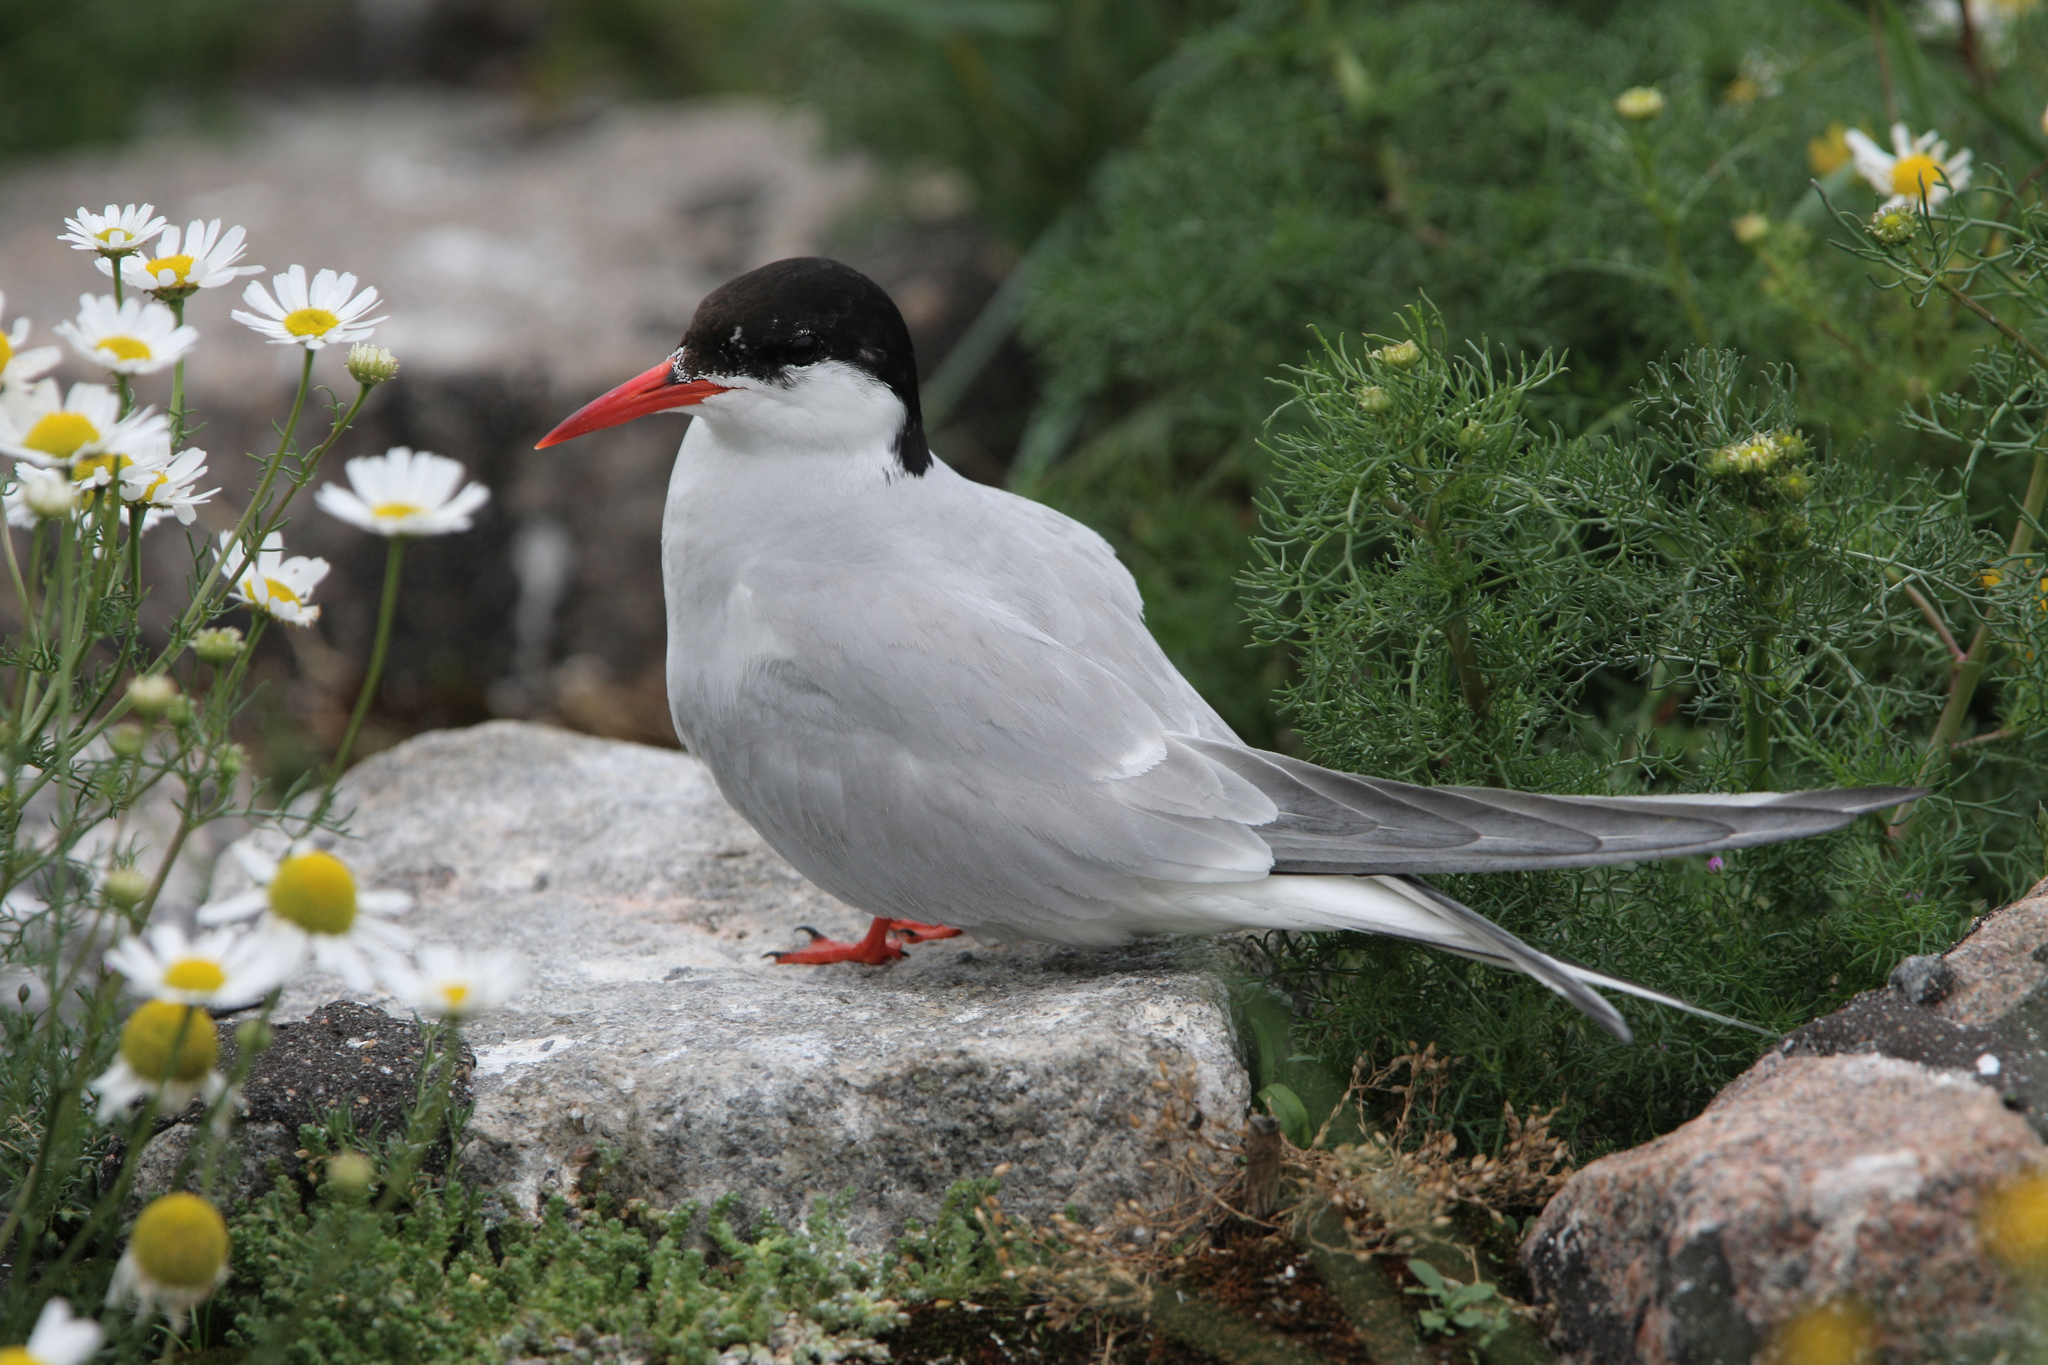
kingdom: Animalia
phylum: Chordata
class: Aves
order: Charadriiformes
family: Laridae
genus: Sterna
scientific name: Sterna paradisaea
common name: Arctic tern
